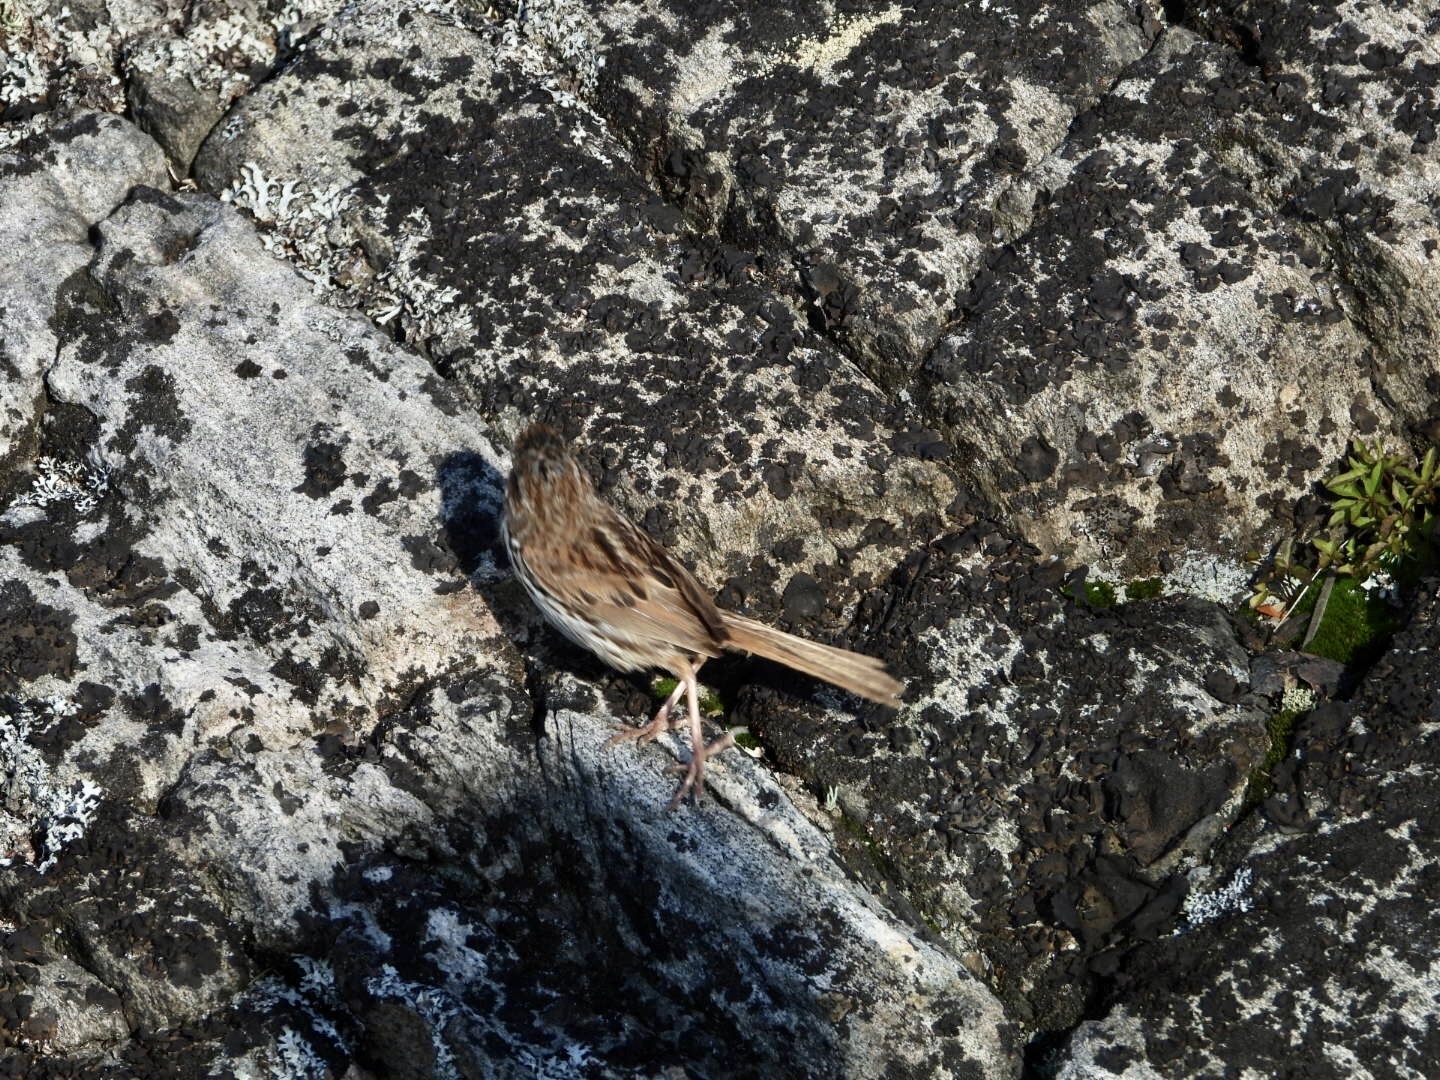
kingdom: Animalia
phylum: Chordata
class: Aves
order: Passeriformes
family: Passerellidae
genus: Melospiza
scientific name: Melospiza melodia
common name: Song sparrow
